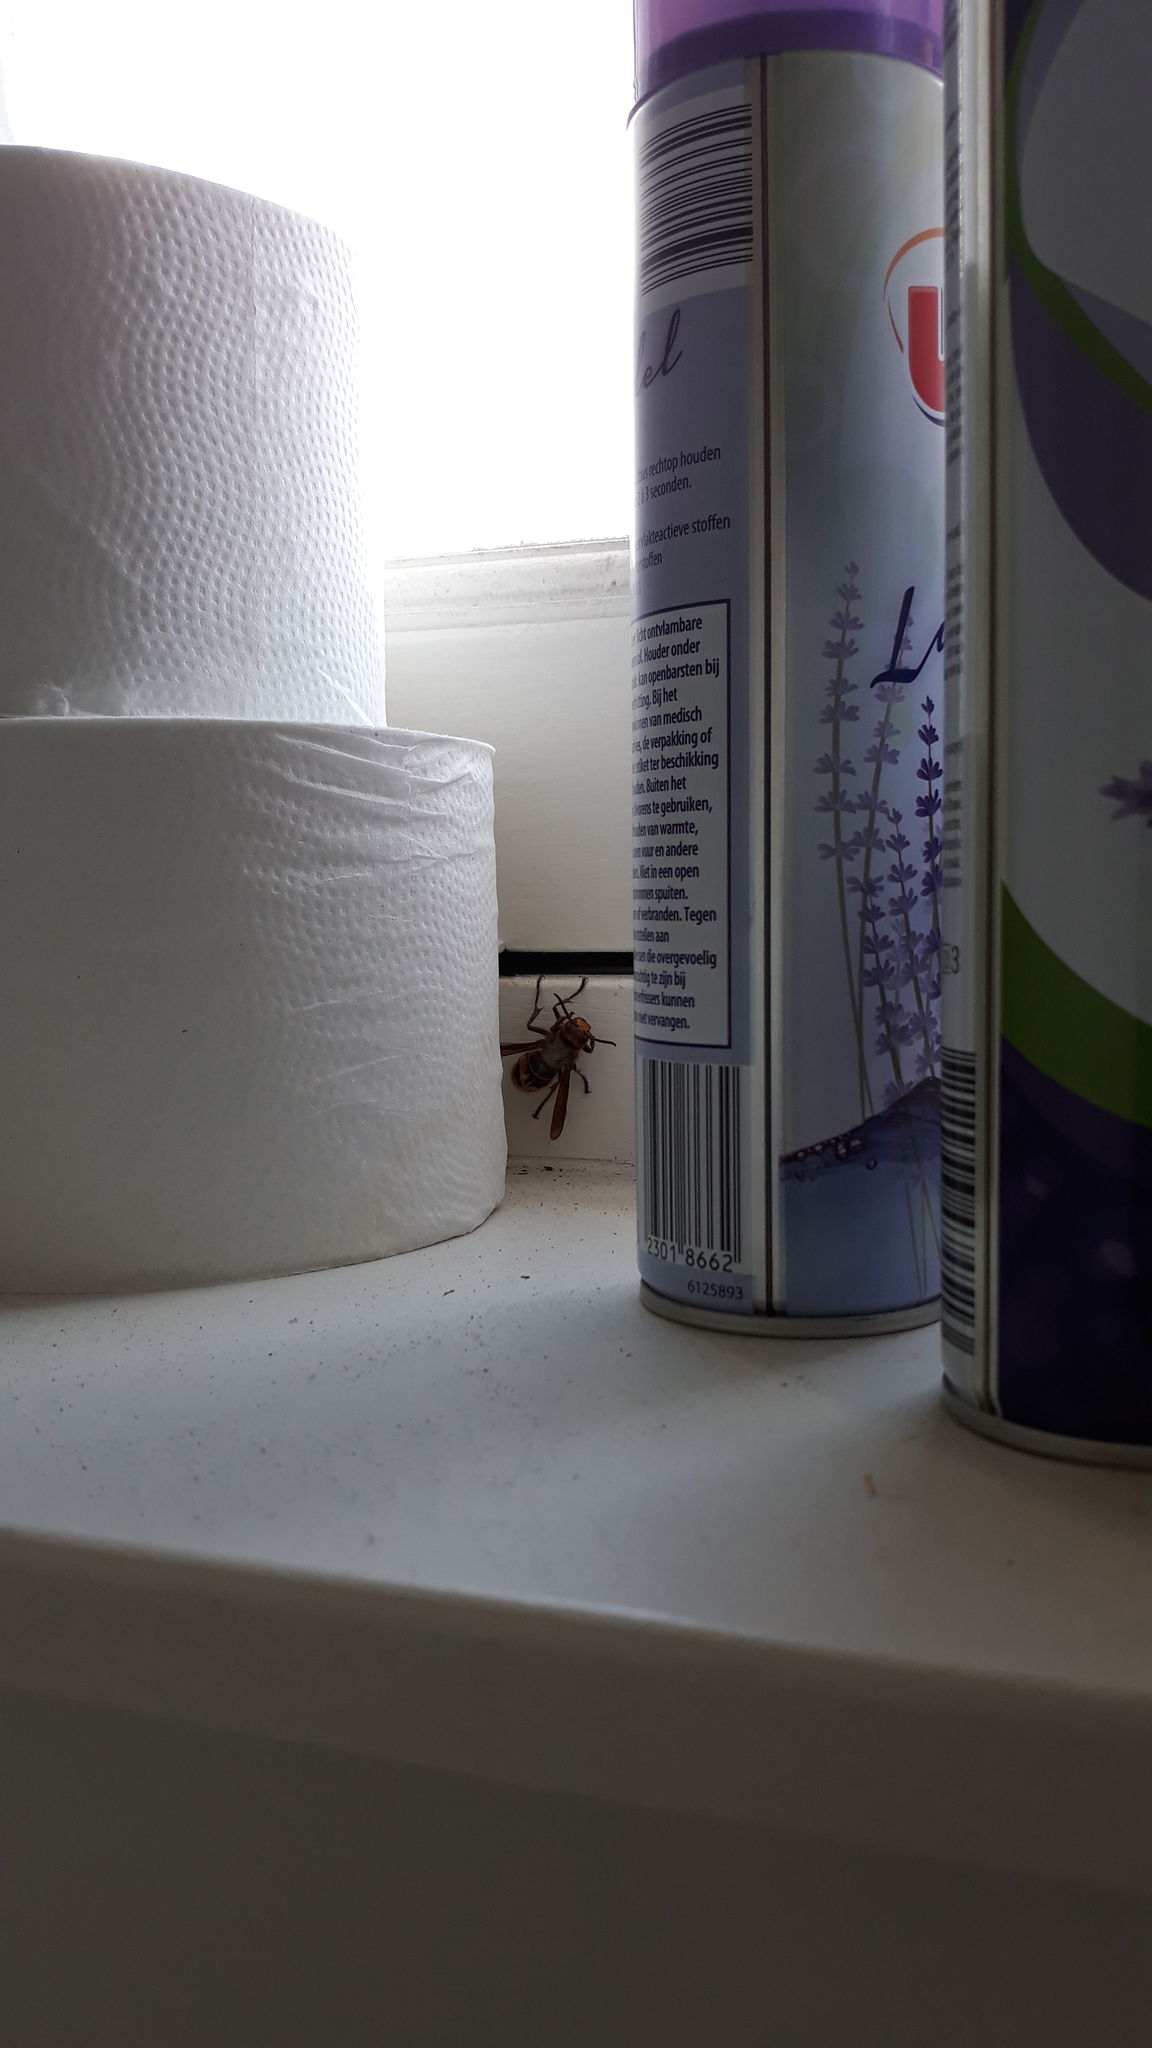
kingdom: Animalia
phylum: Arthropoda
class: Insecta
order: Hymenoptera
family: Vespidae
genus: Vespa
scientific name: Vespa crabro
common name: Hornet
